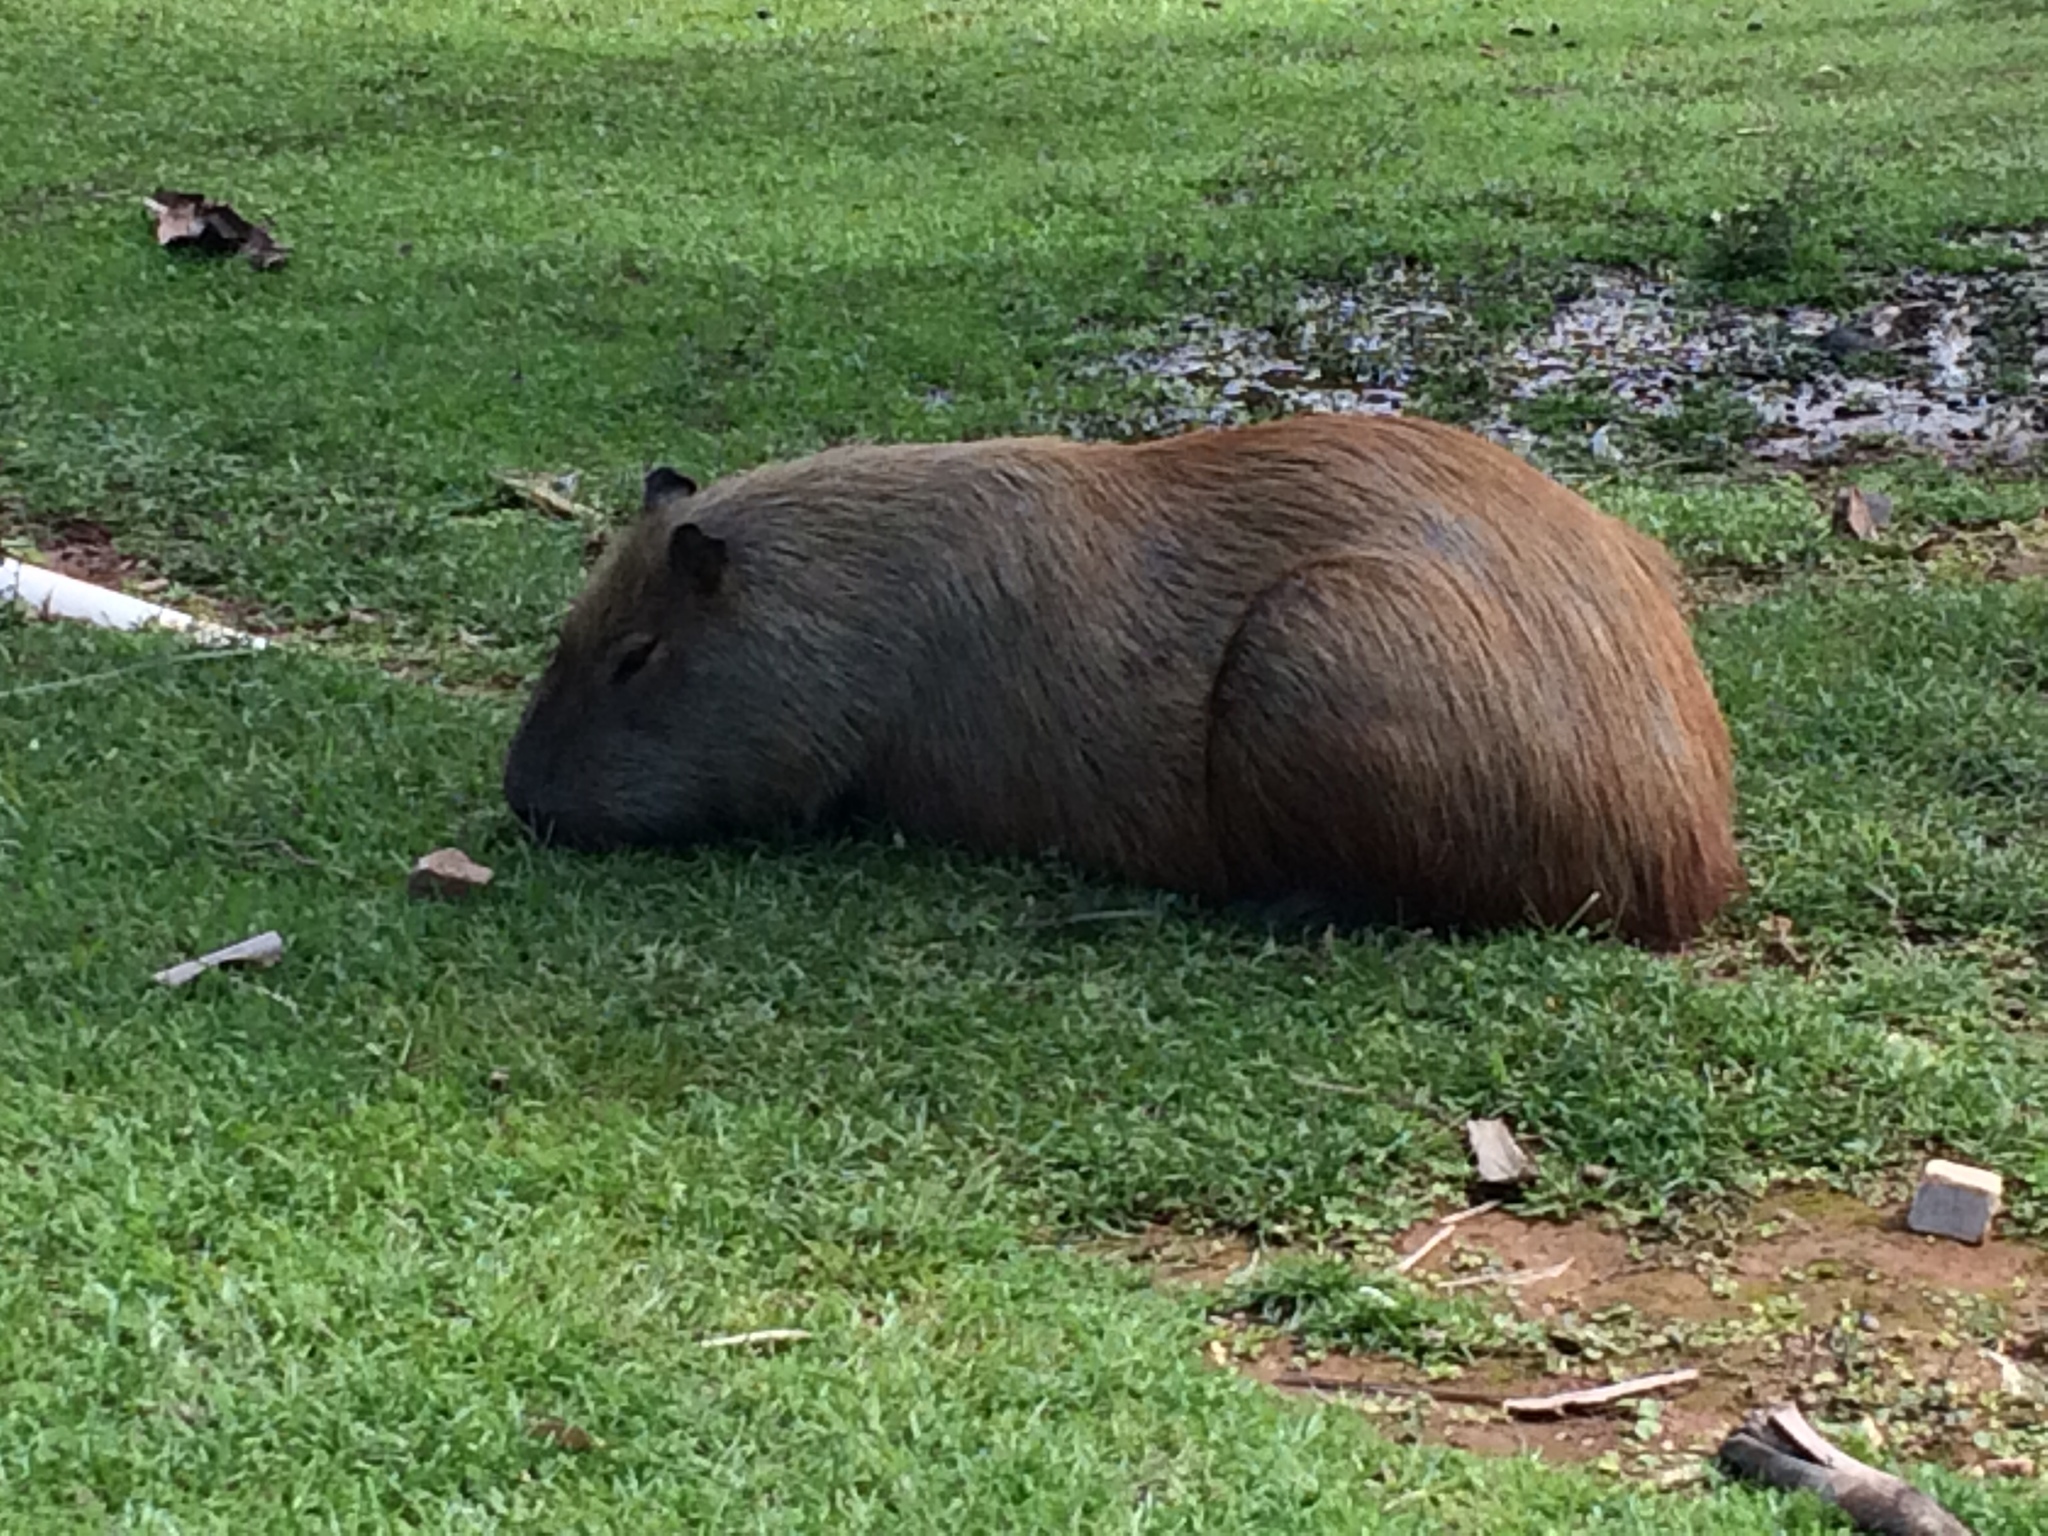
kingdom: Animalia
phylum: Chordata
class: Mammalia
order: Rodentia
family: Caviidae
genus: Hydrochoerus
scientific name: Hydrochoerus hydrochaeris
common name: Capybara
